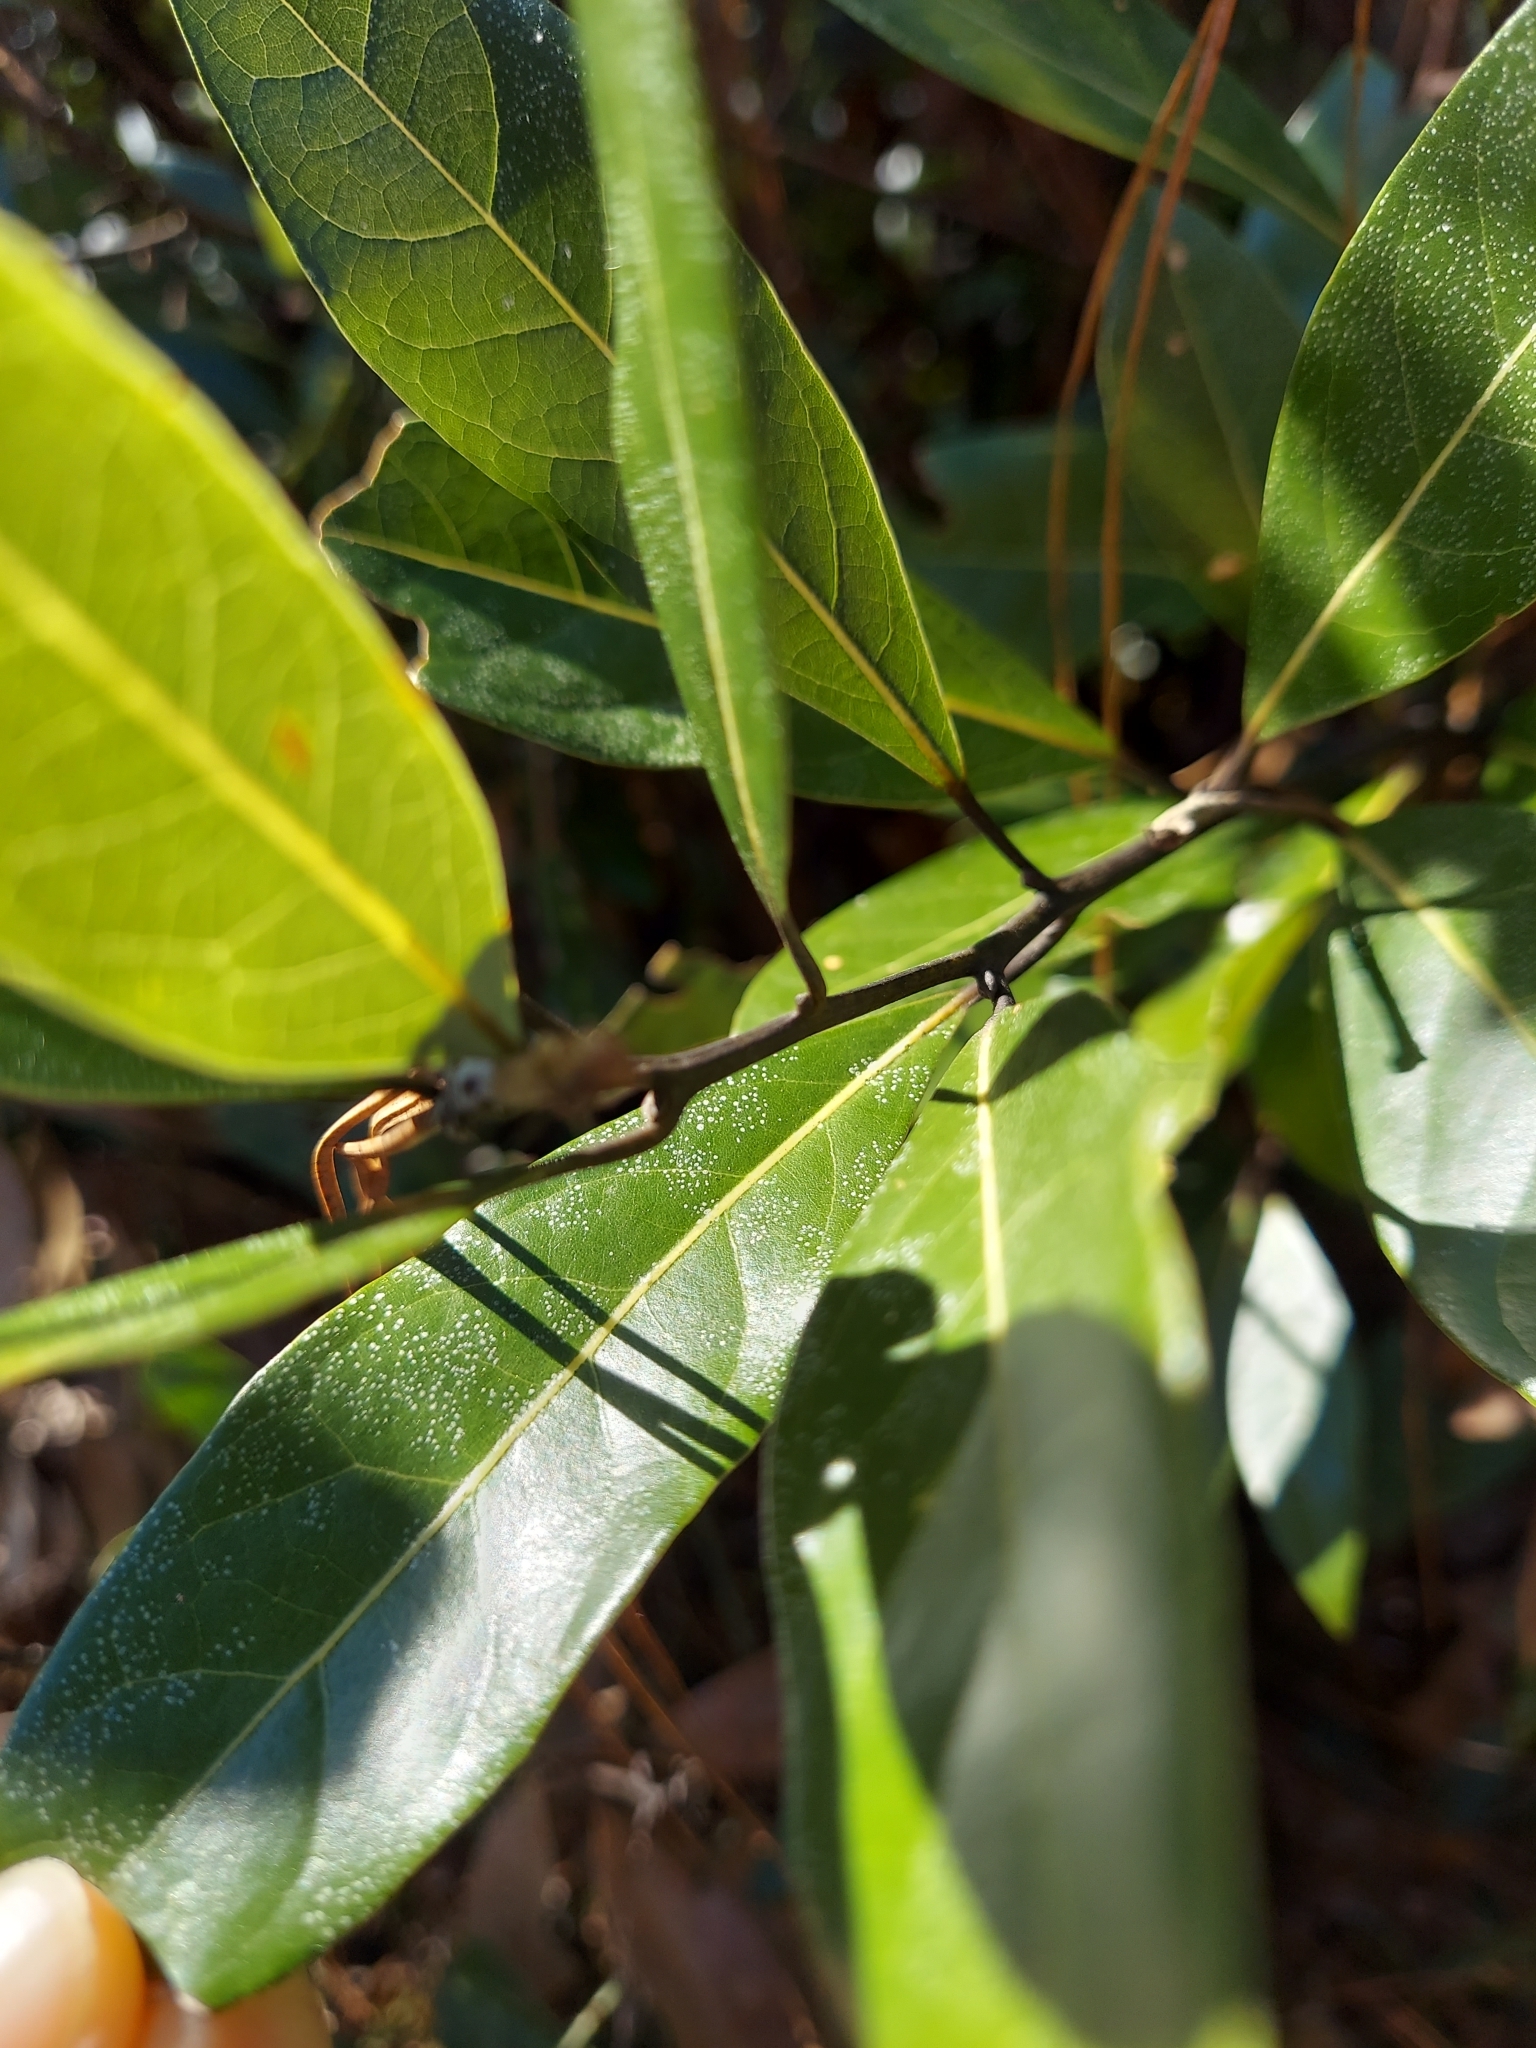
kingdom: Plantae
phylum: Tracheophyta
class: Magnoliopsida
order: Laurales
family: Lauraceae
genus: Persea
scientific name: Persea borbonia
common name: Redbay
